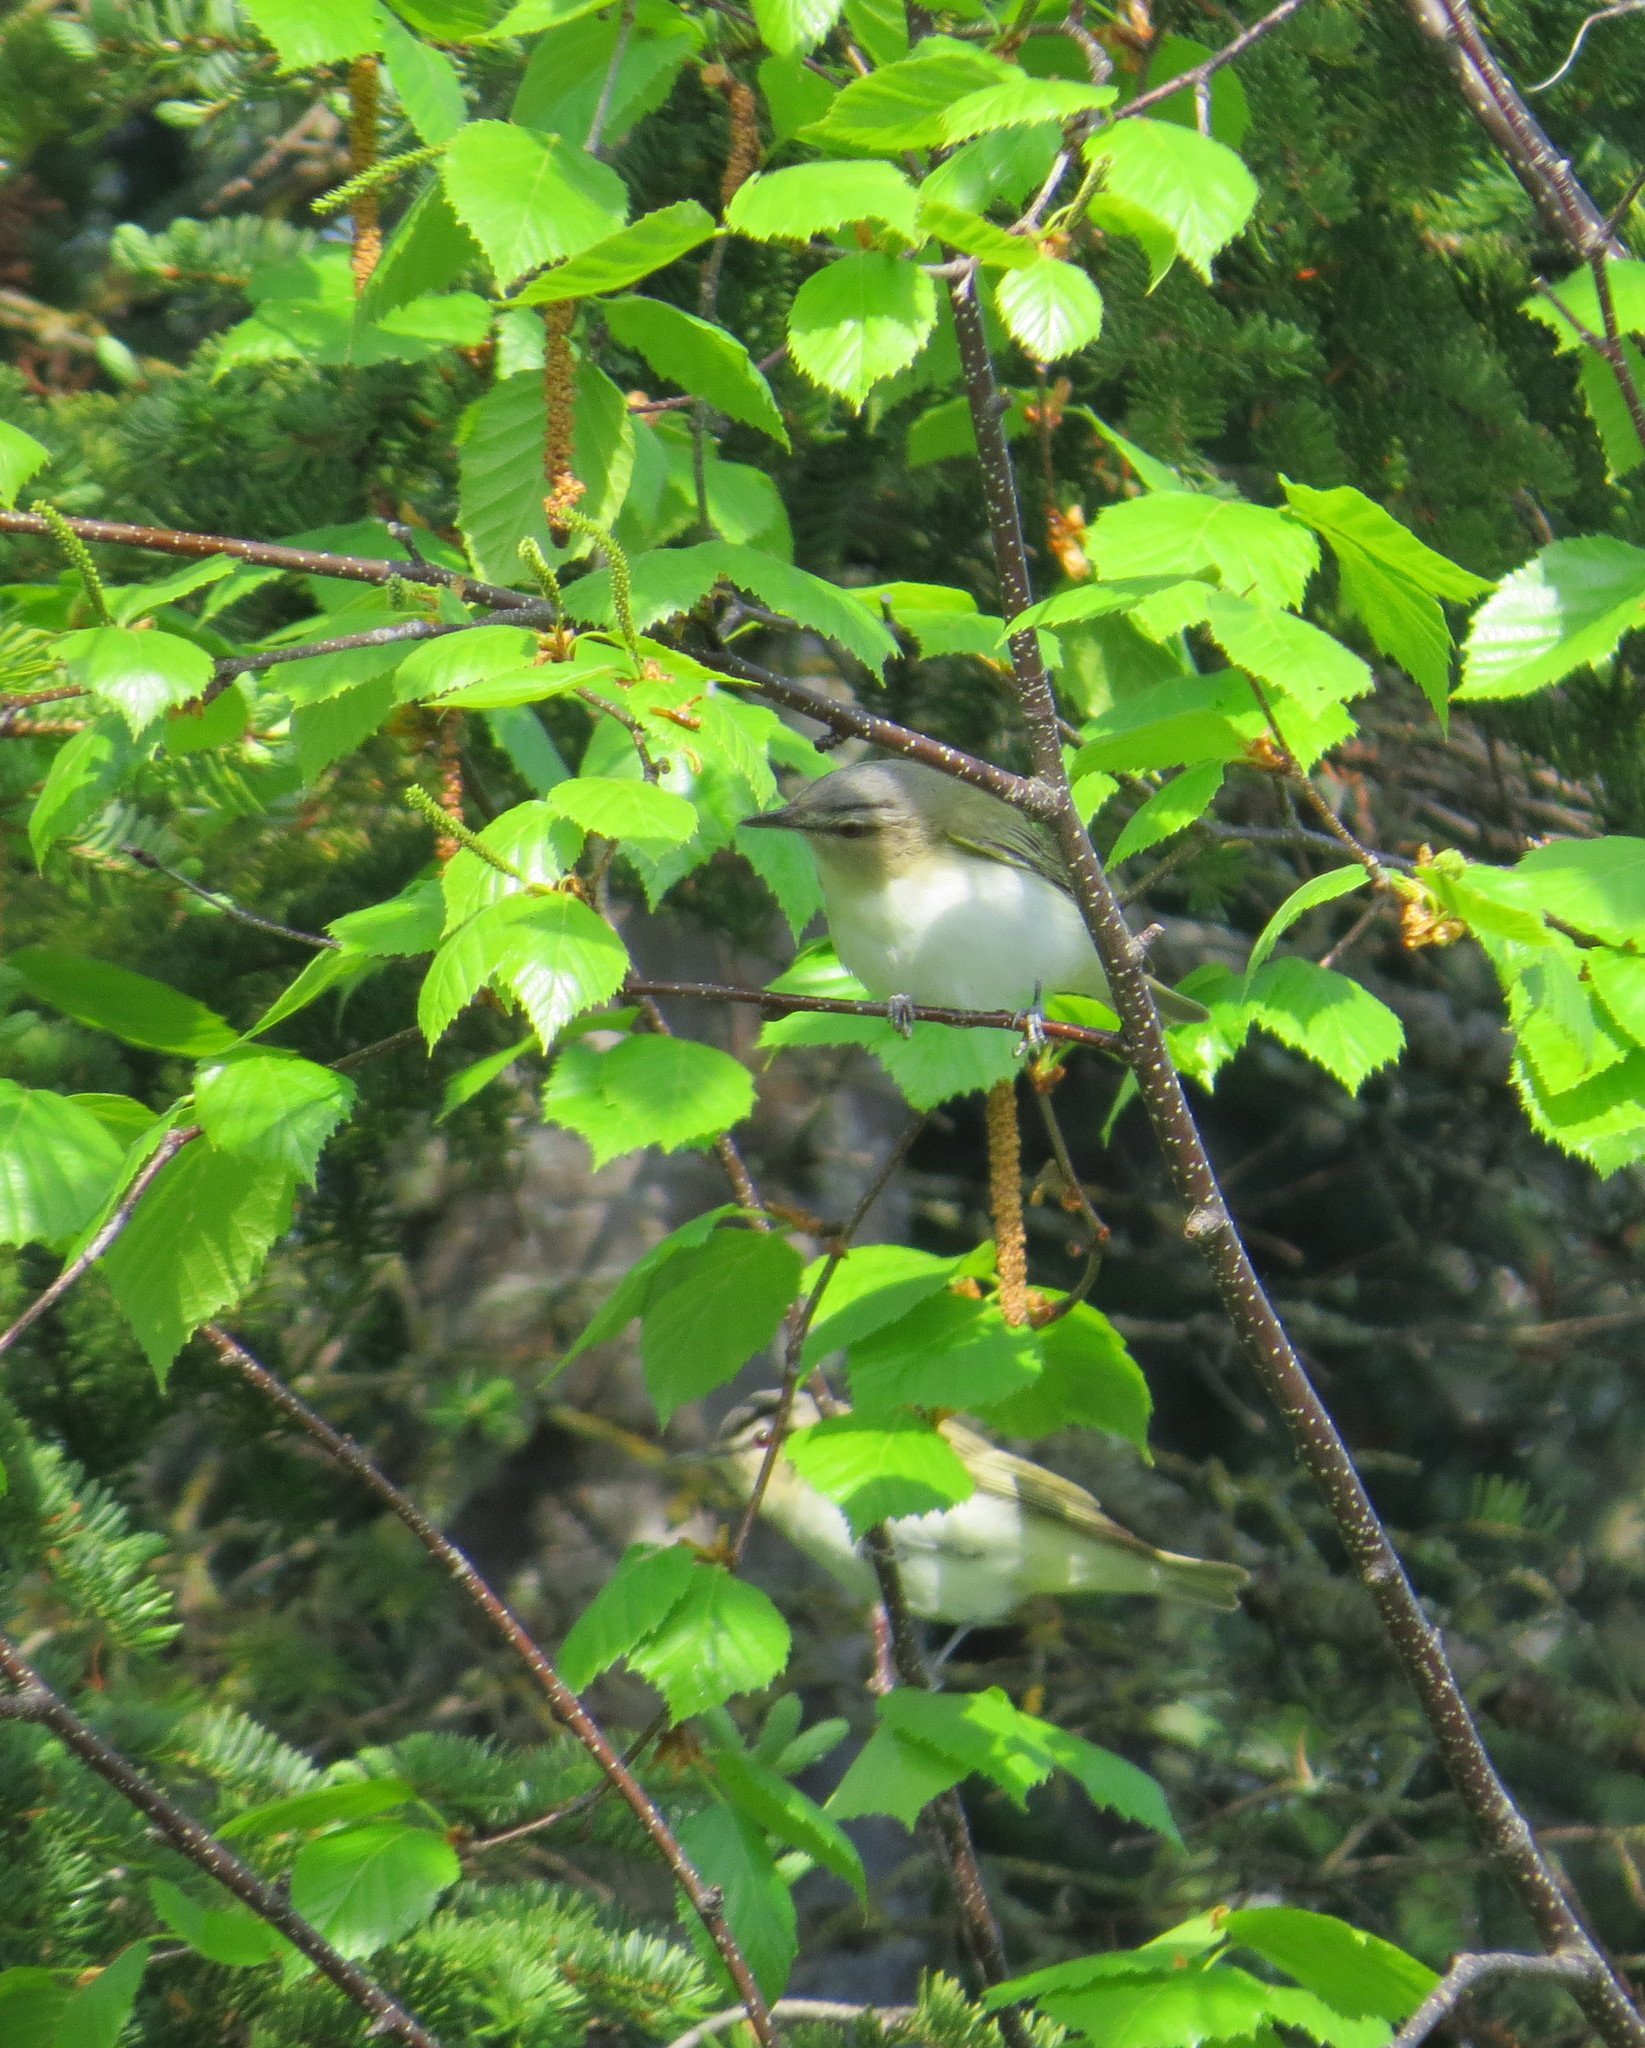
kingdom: Animalia
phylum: Chordata
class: Aves
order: Passeriformes
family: Vireonidae
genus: Vireo
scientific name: Vireo olivaceus
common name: Red-eyed vireo
